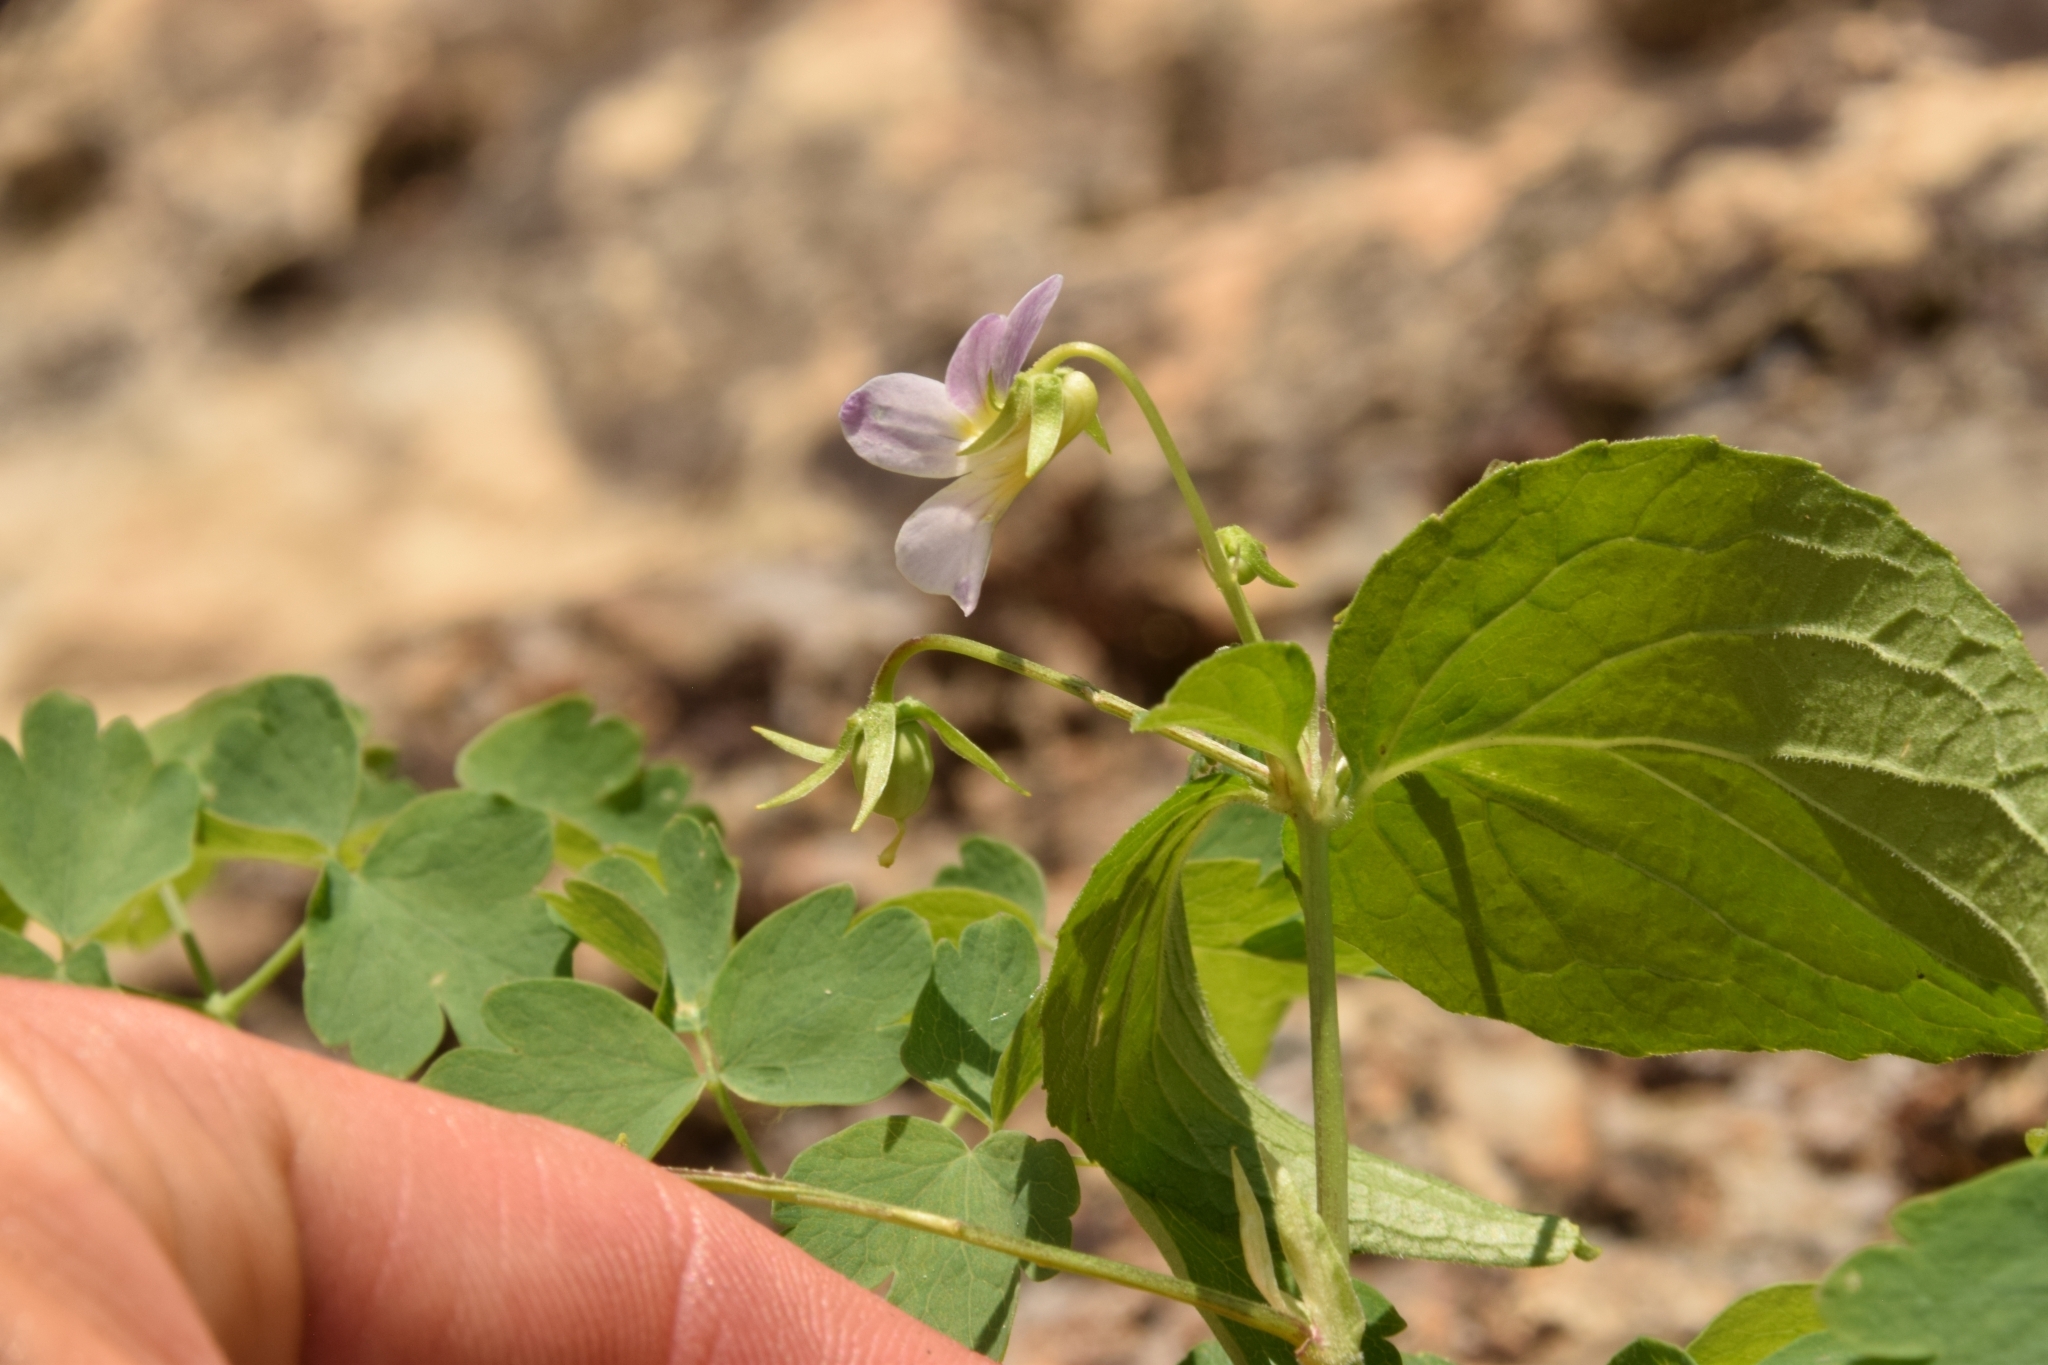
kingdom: Plantae
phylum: Tracheophyta
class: Magnoliopsida
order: Malpighiales
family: Violaceae
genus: Viola
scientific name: Viola canadensis
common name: Canada violet
